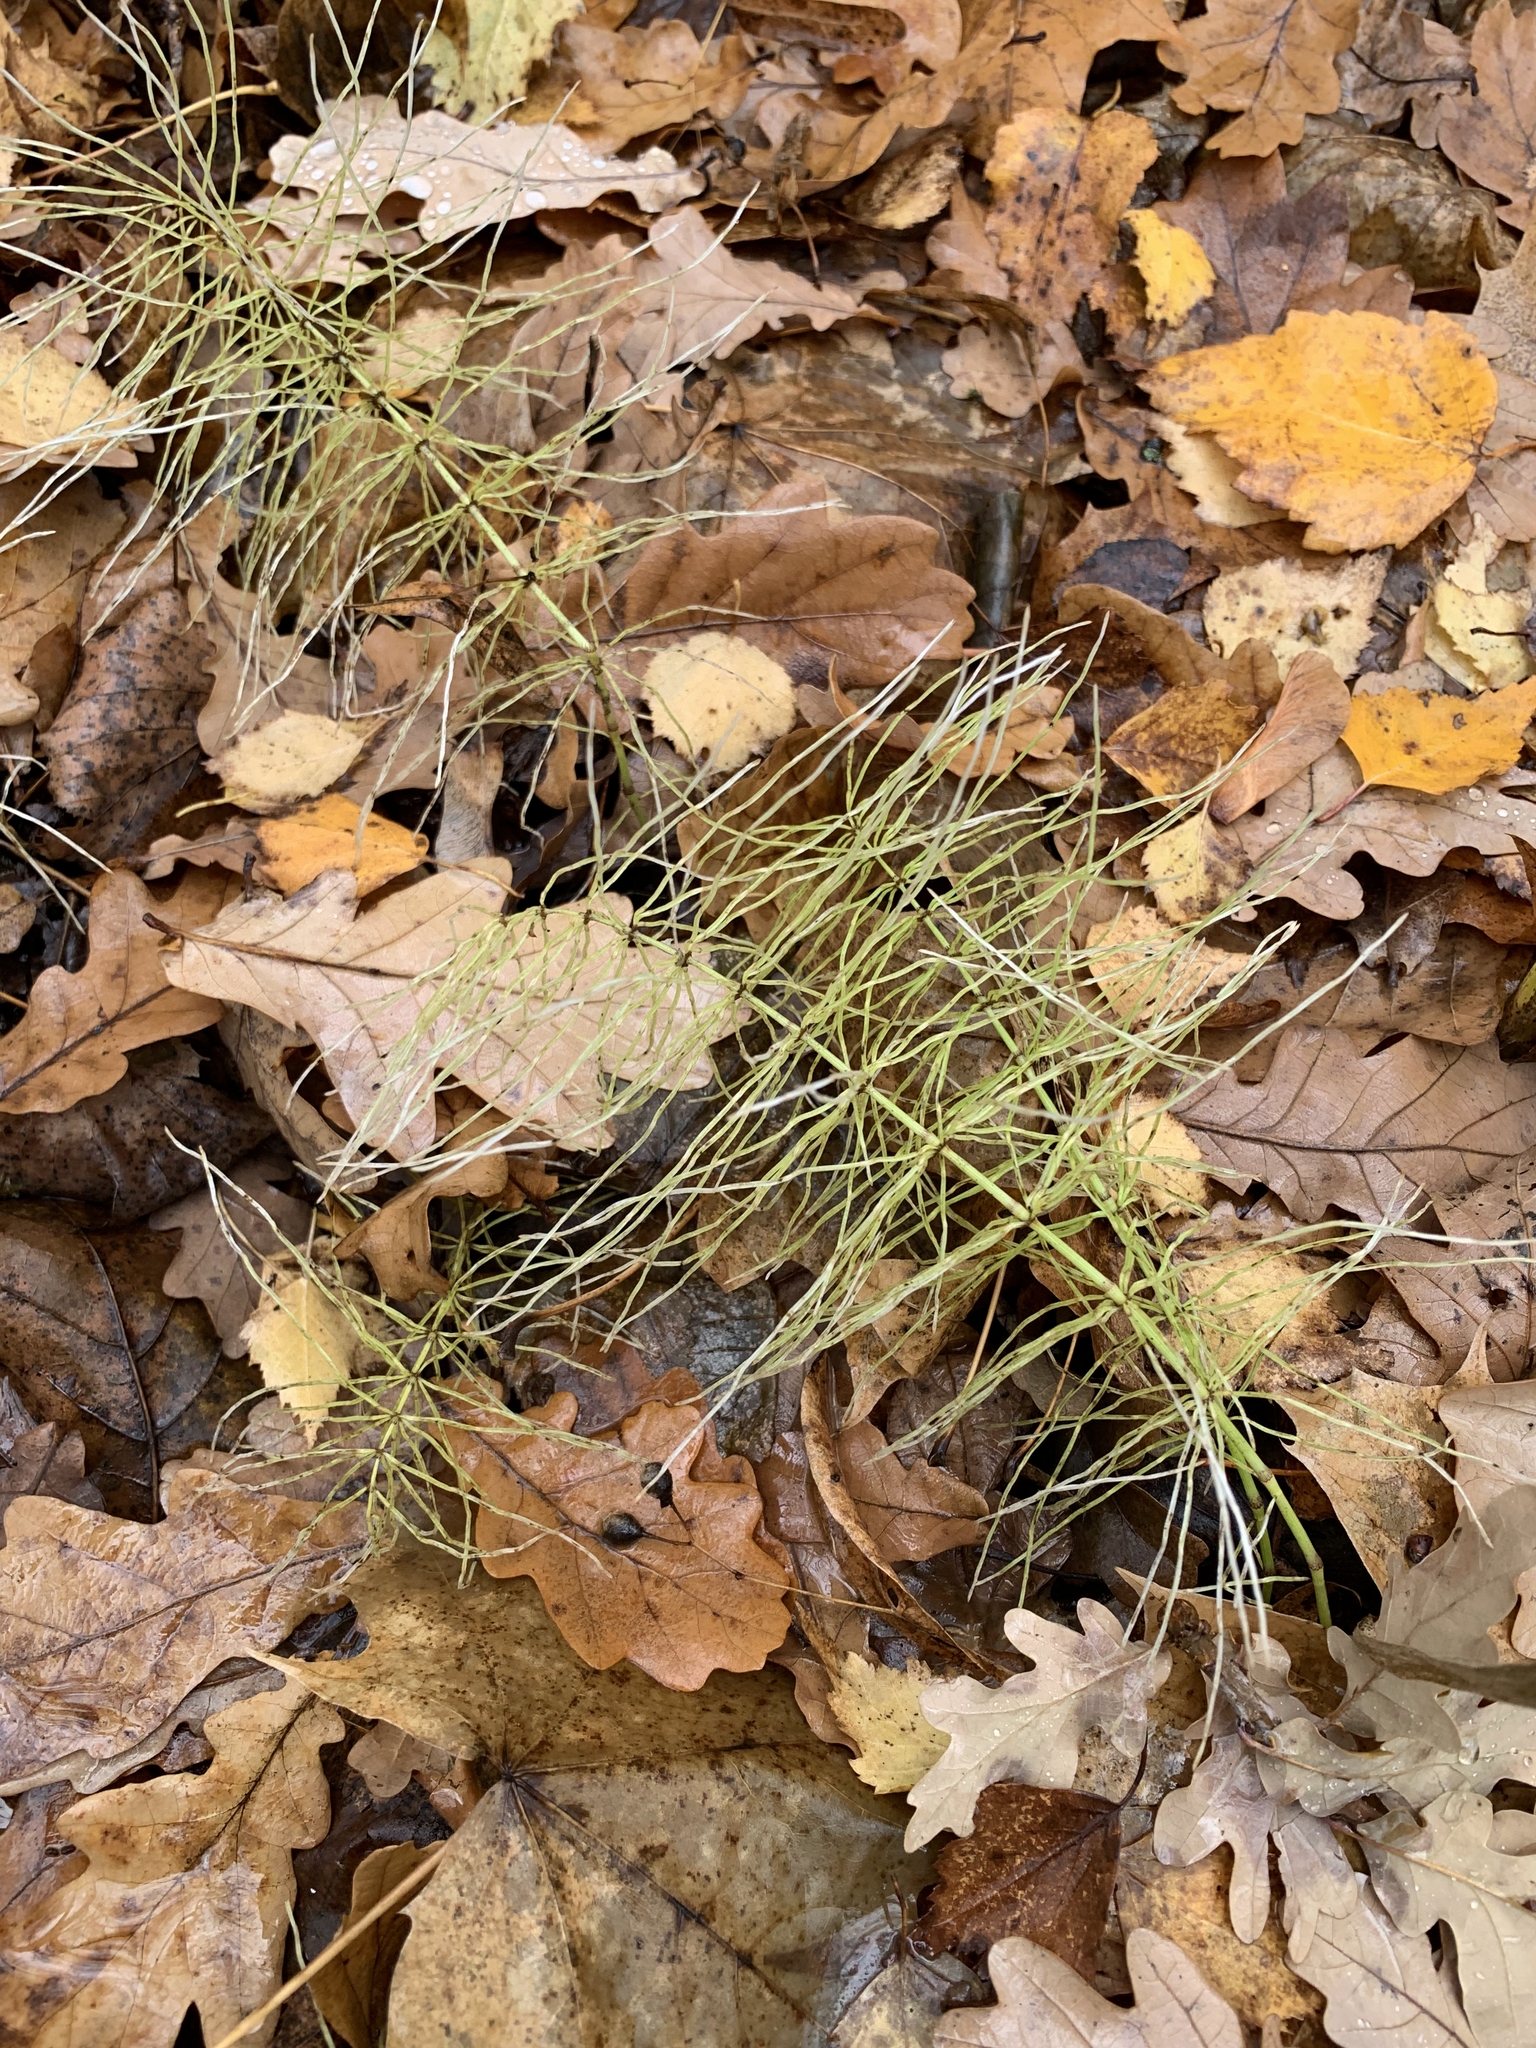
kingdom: Plantae
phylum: Tracheophyta
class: Polypodiopsida
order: Equisetales
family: Equisetaceae
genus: Equisetum
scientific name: Equisetum pratense
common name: Meadow horsetail
